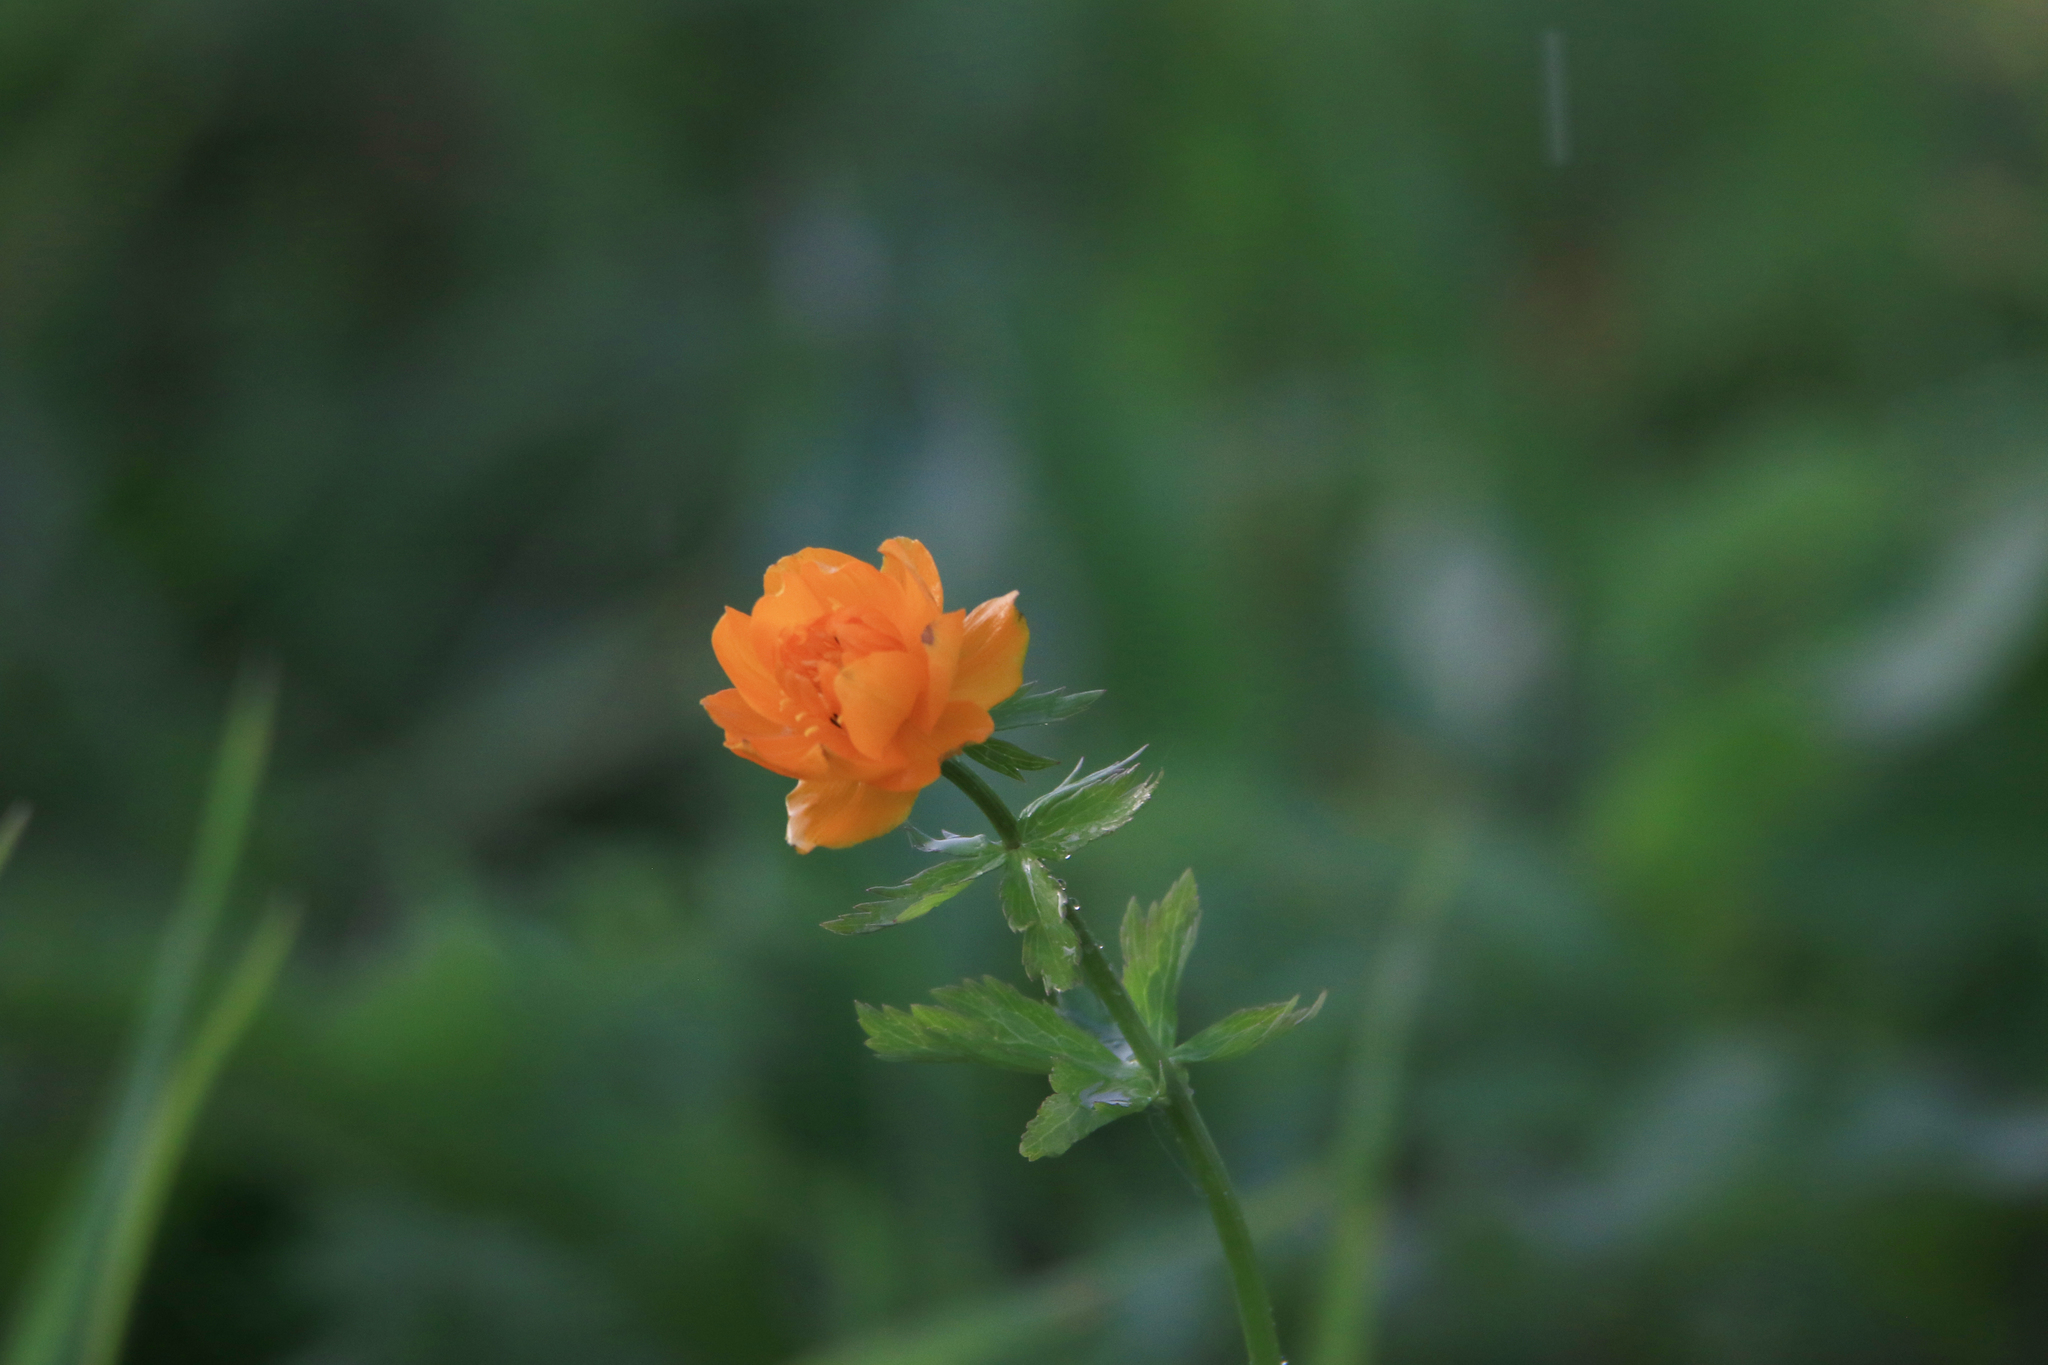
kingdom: Plantae
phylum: Tracheophyta
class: Magnoliopsida
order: Ranunculales
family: Ranunculaceae
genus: Trollius
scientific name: Trollius asiaticus
